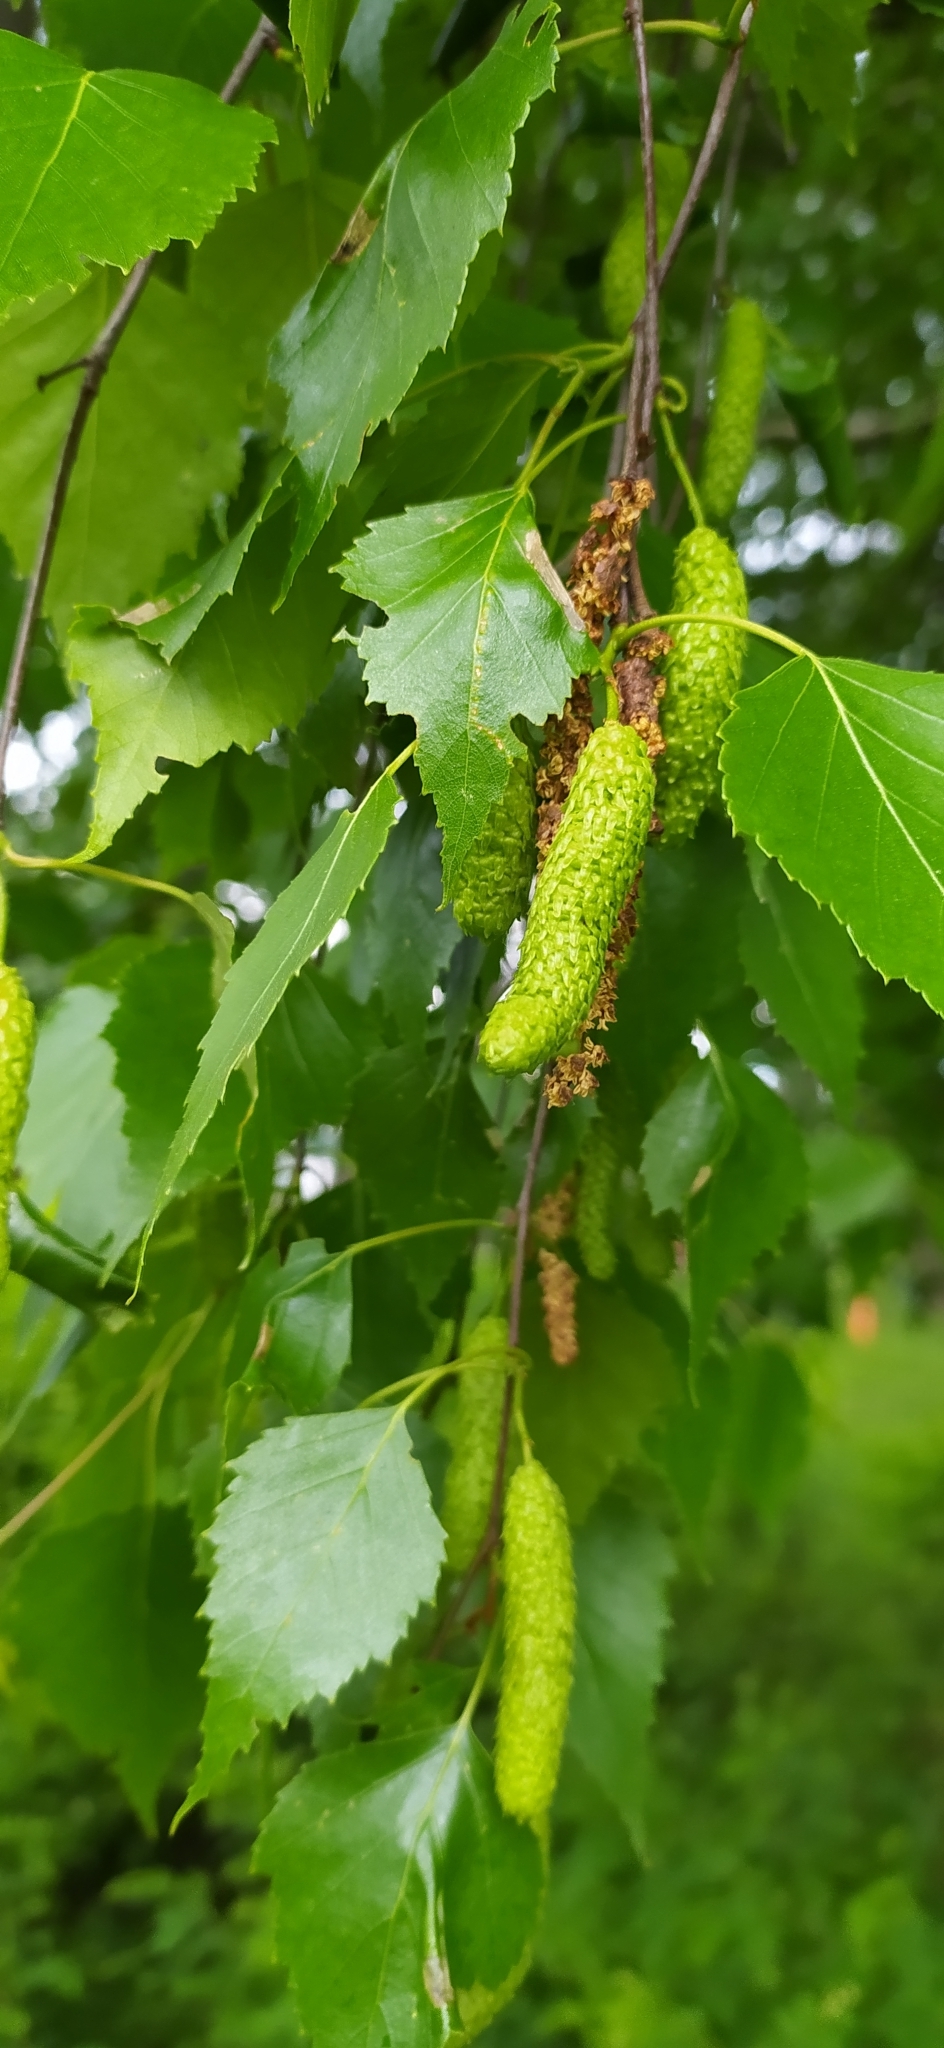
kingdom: Plantae
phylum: Tracheophyta
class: Magnoliopsida
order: Fagales
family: Betulaceae
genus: Betula
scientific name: Betula pendula
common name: Silver birch
